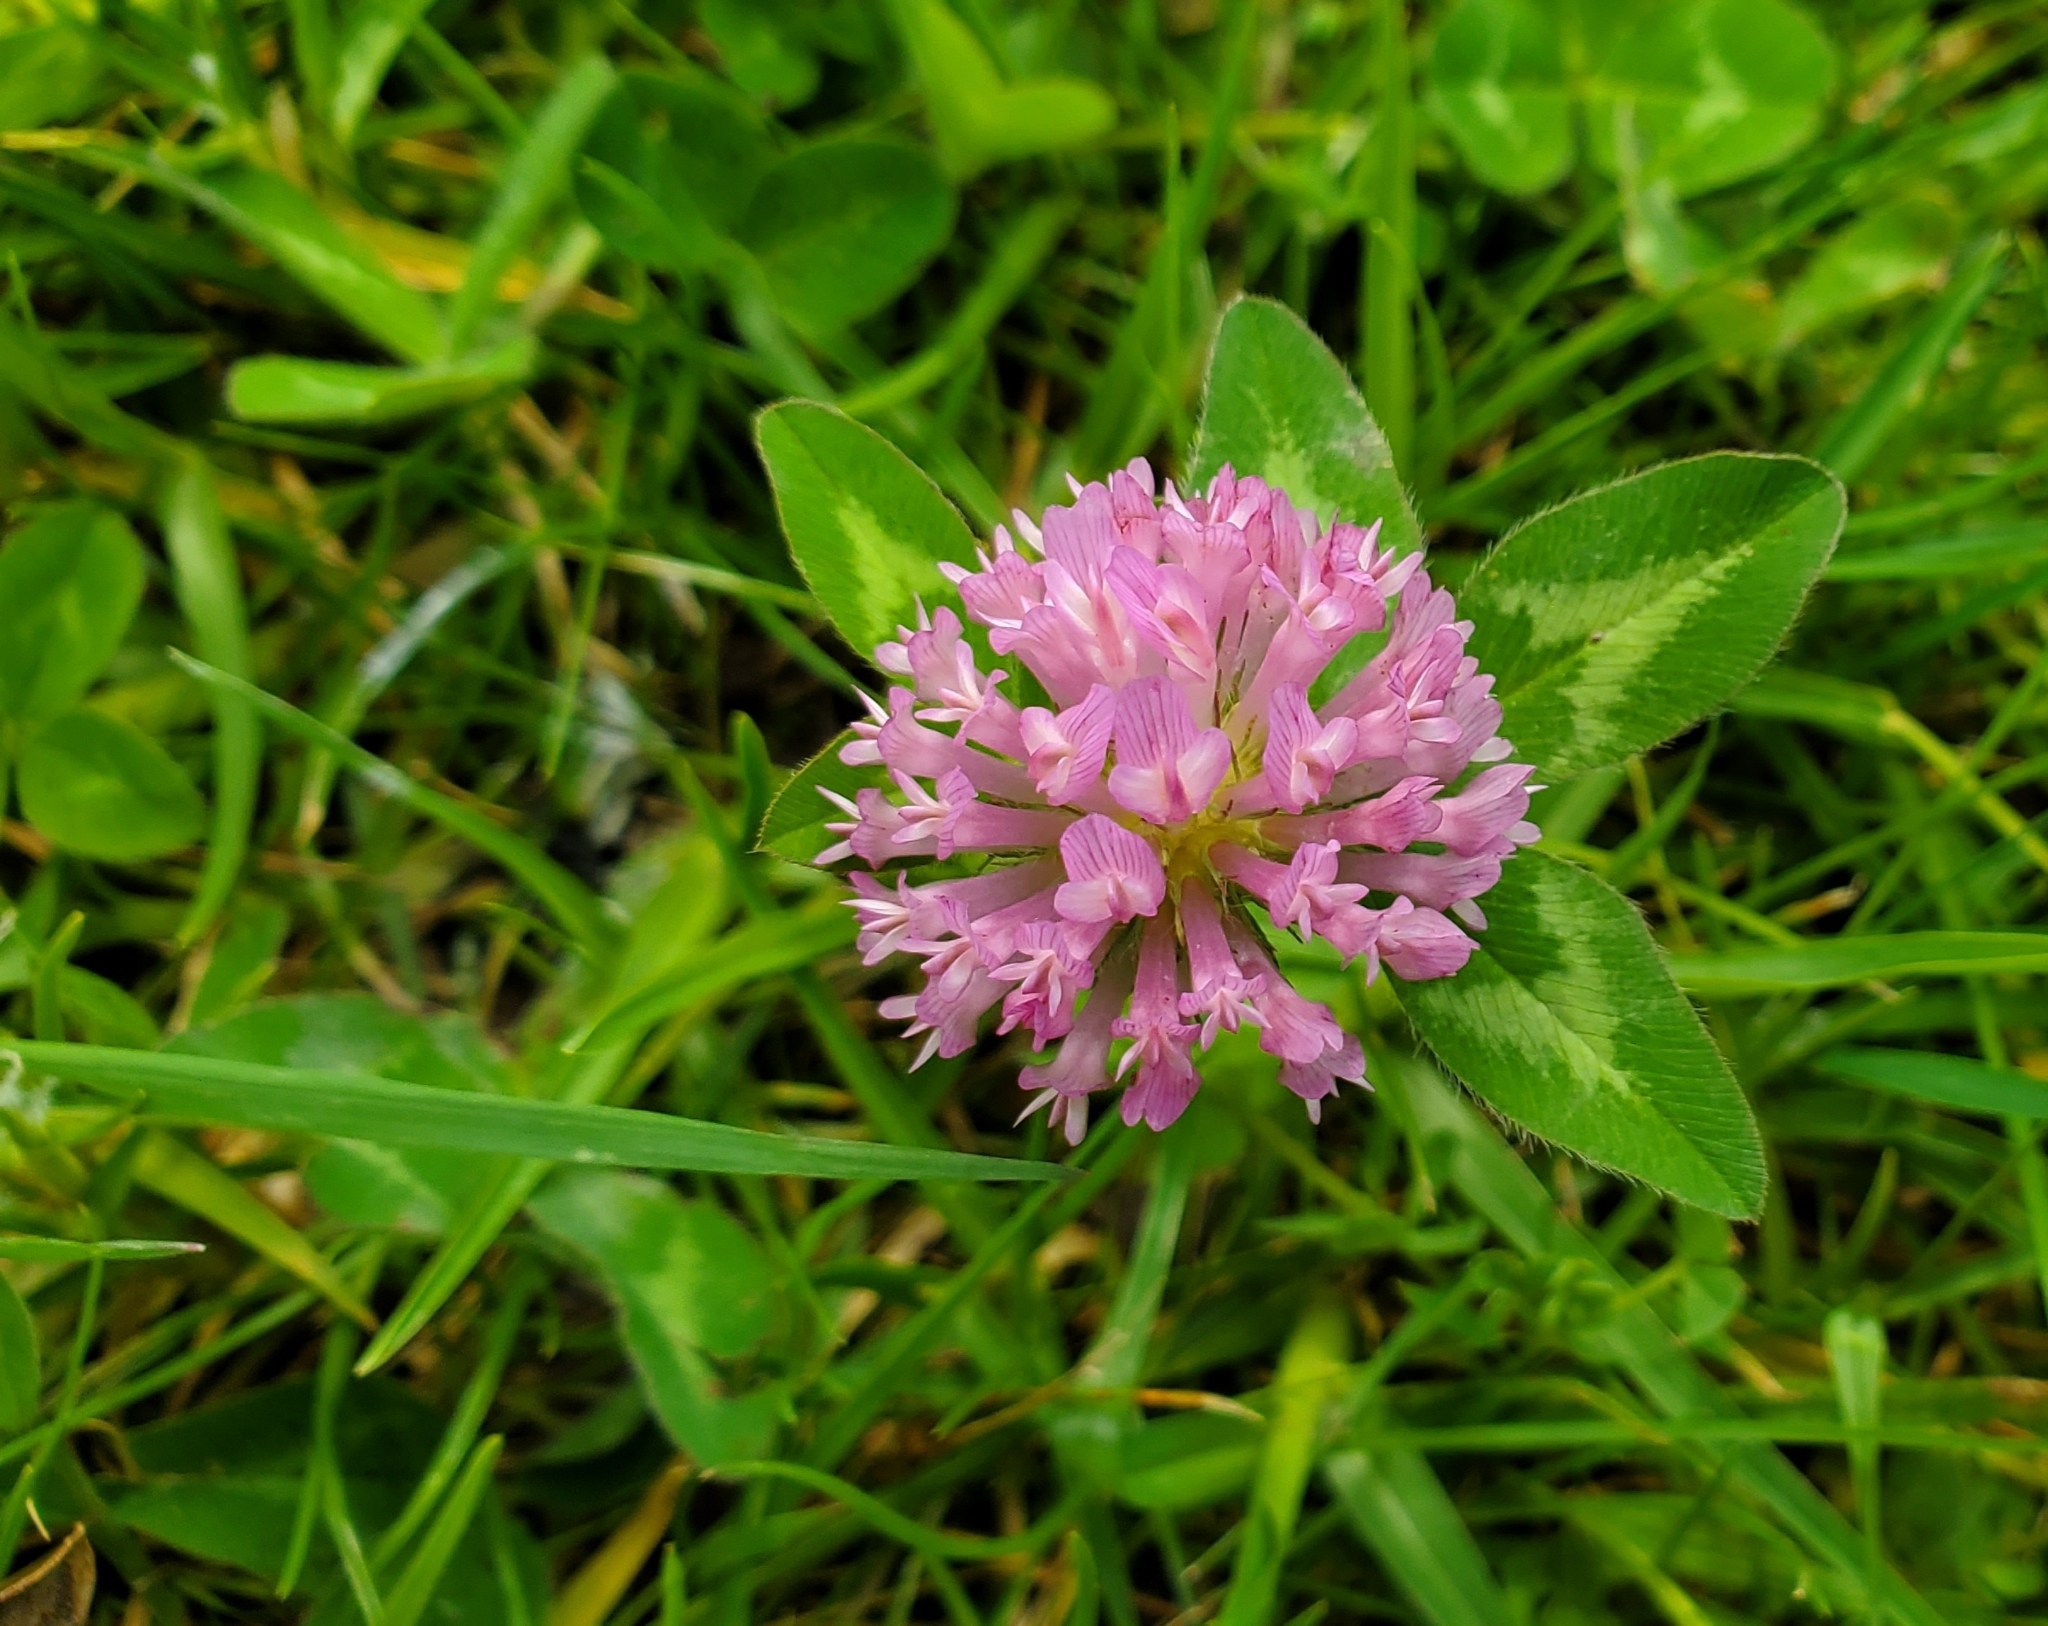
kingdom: Plantae
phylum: Tracheophyta
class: Magnoliopsida
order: Fabales
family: Fabaceae
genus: Trifolium
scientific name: Trifolium pratense
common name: Red clover
